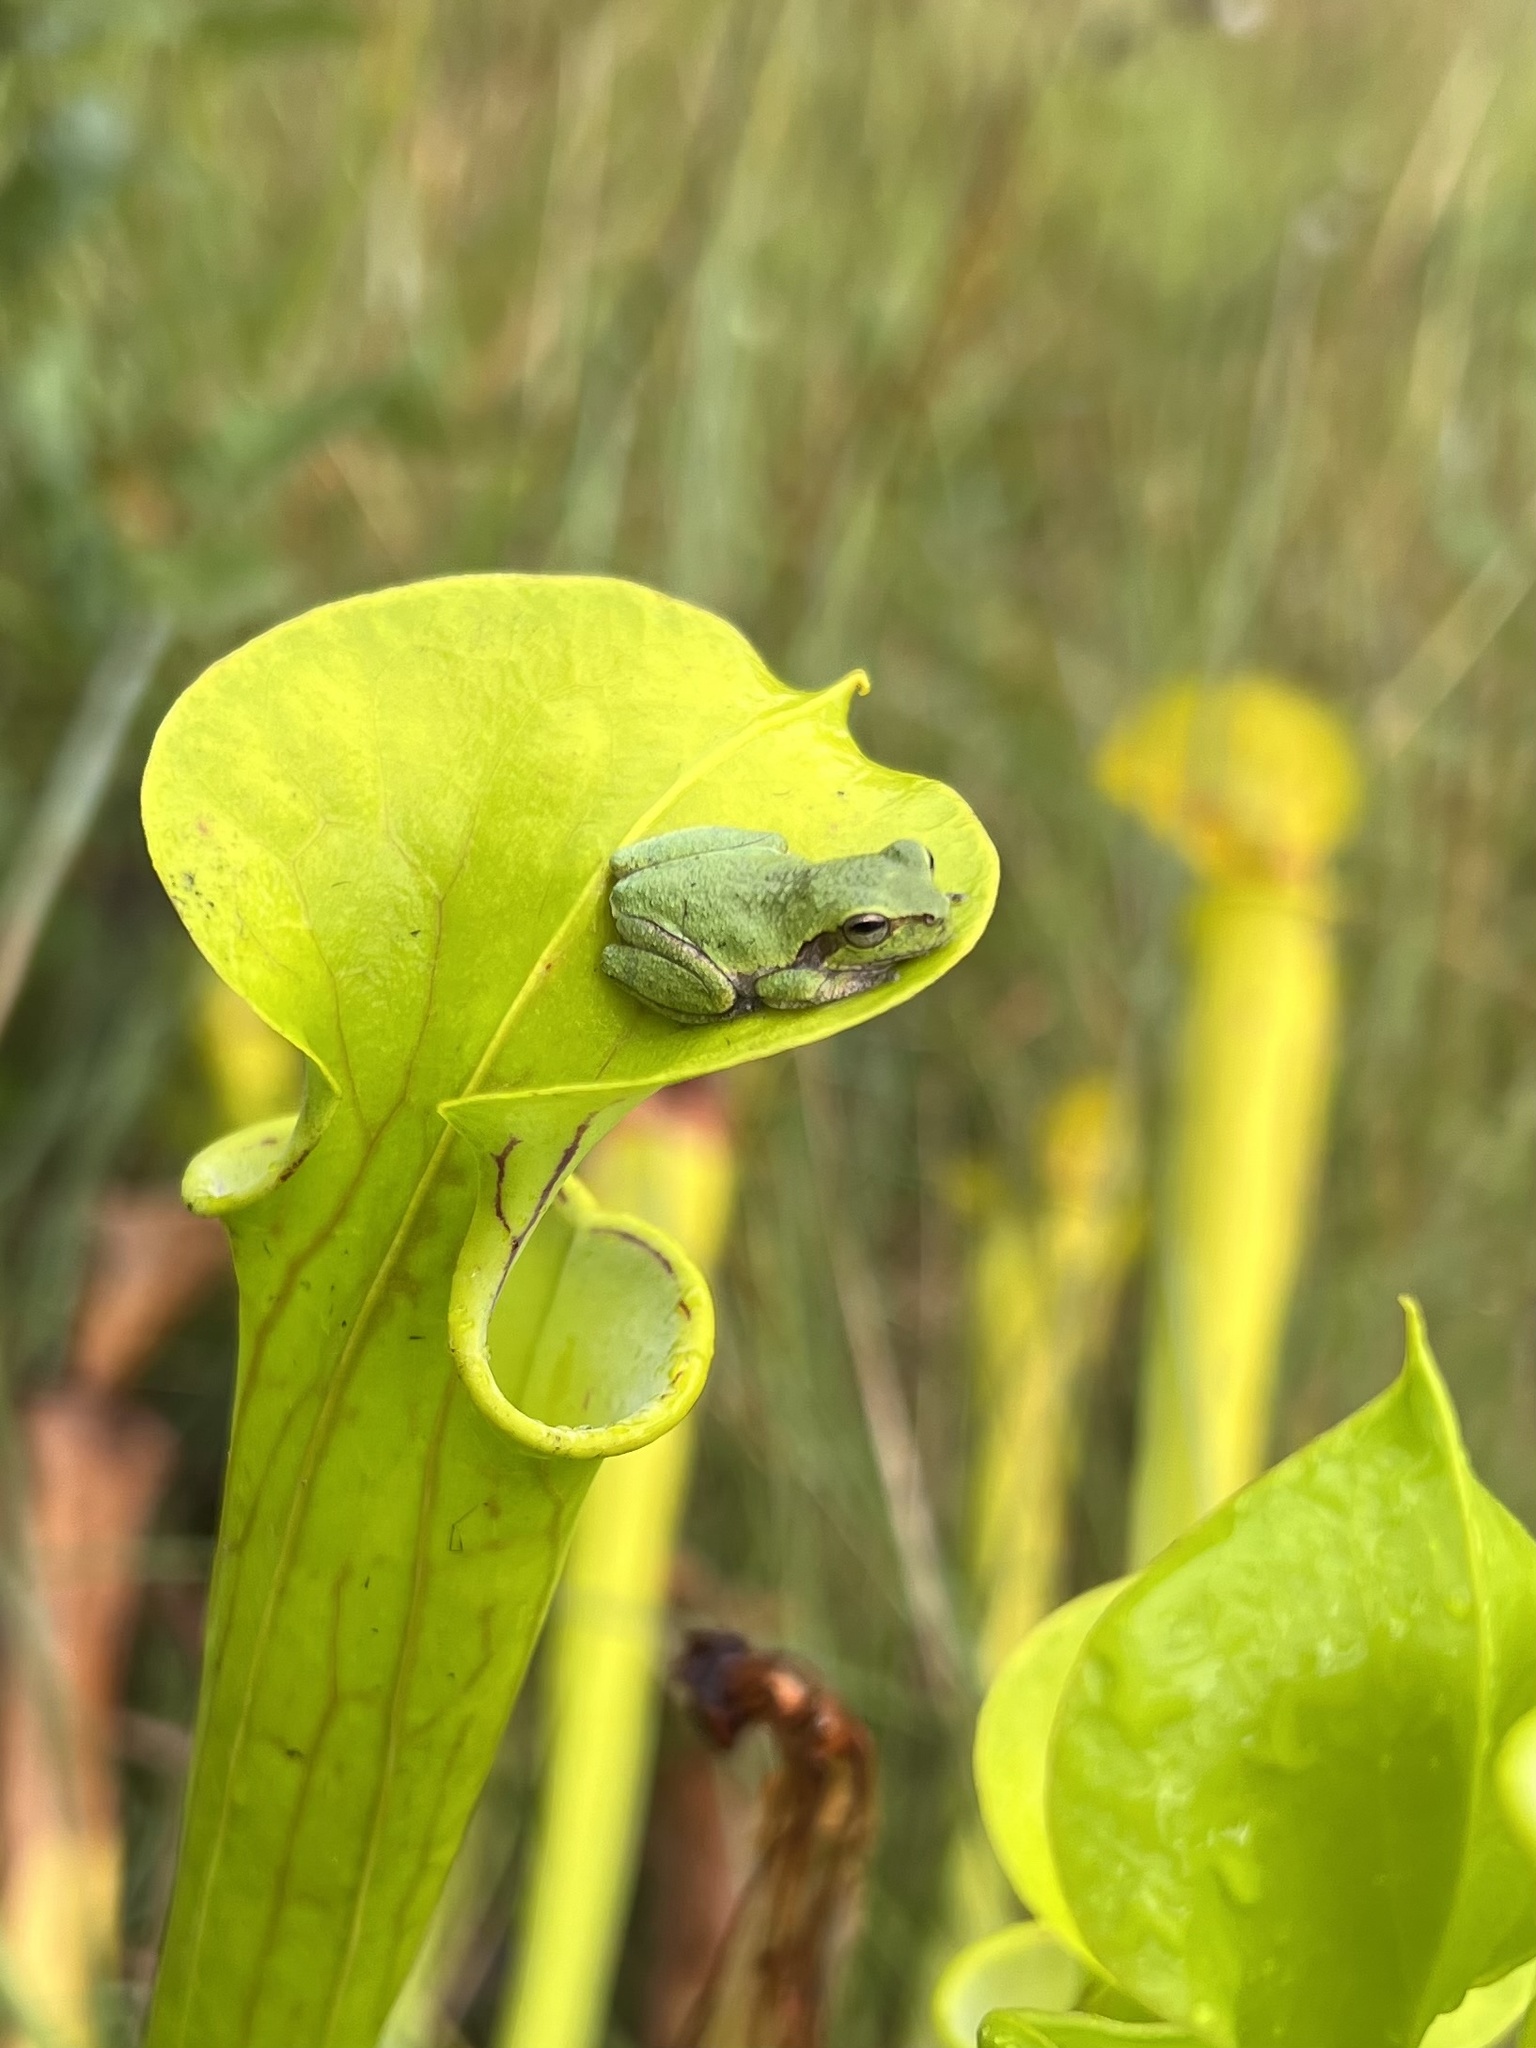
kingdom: Animalia
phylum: Chordata
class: Amphibia
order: Anura
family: Hylidae
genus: Hyla
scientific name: Hyla femoralis
